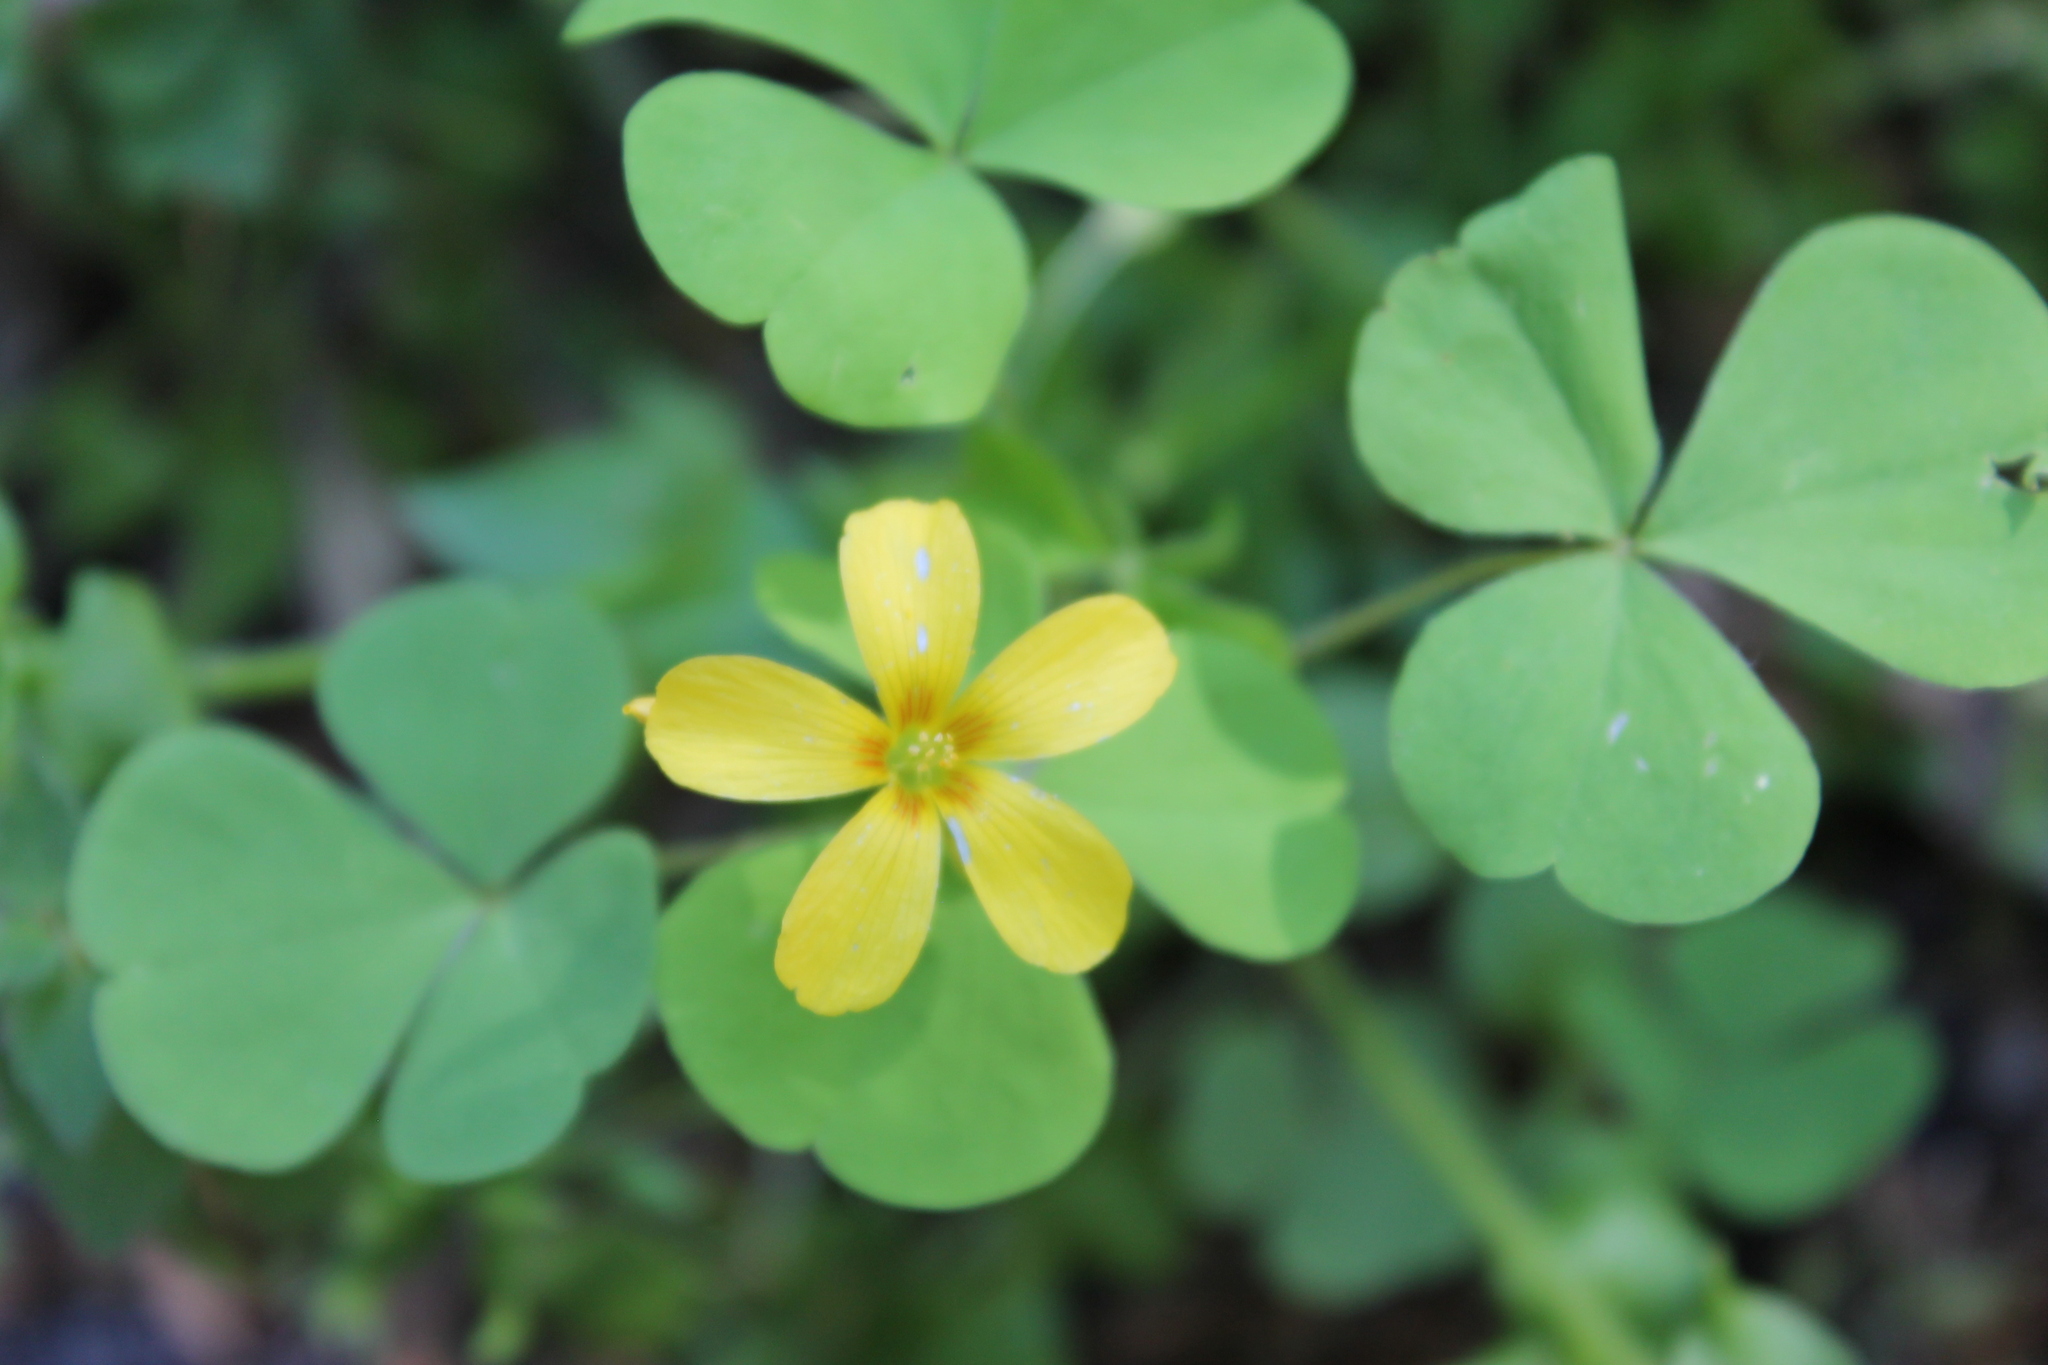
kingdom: Plantae
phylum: Tracheophyta
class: Magnoliopsida
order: Oxalidales
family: Oxalidaceae
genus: Oxalis
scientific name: Oxalis illinoensis
